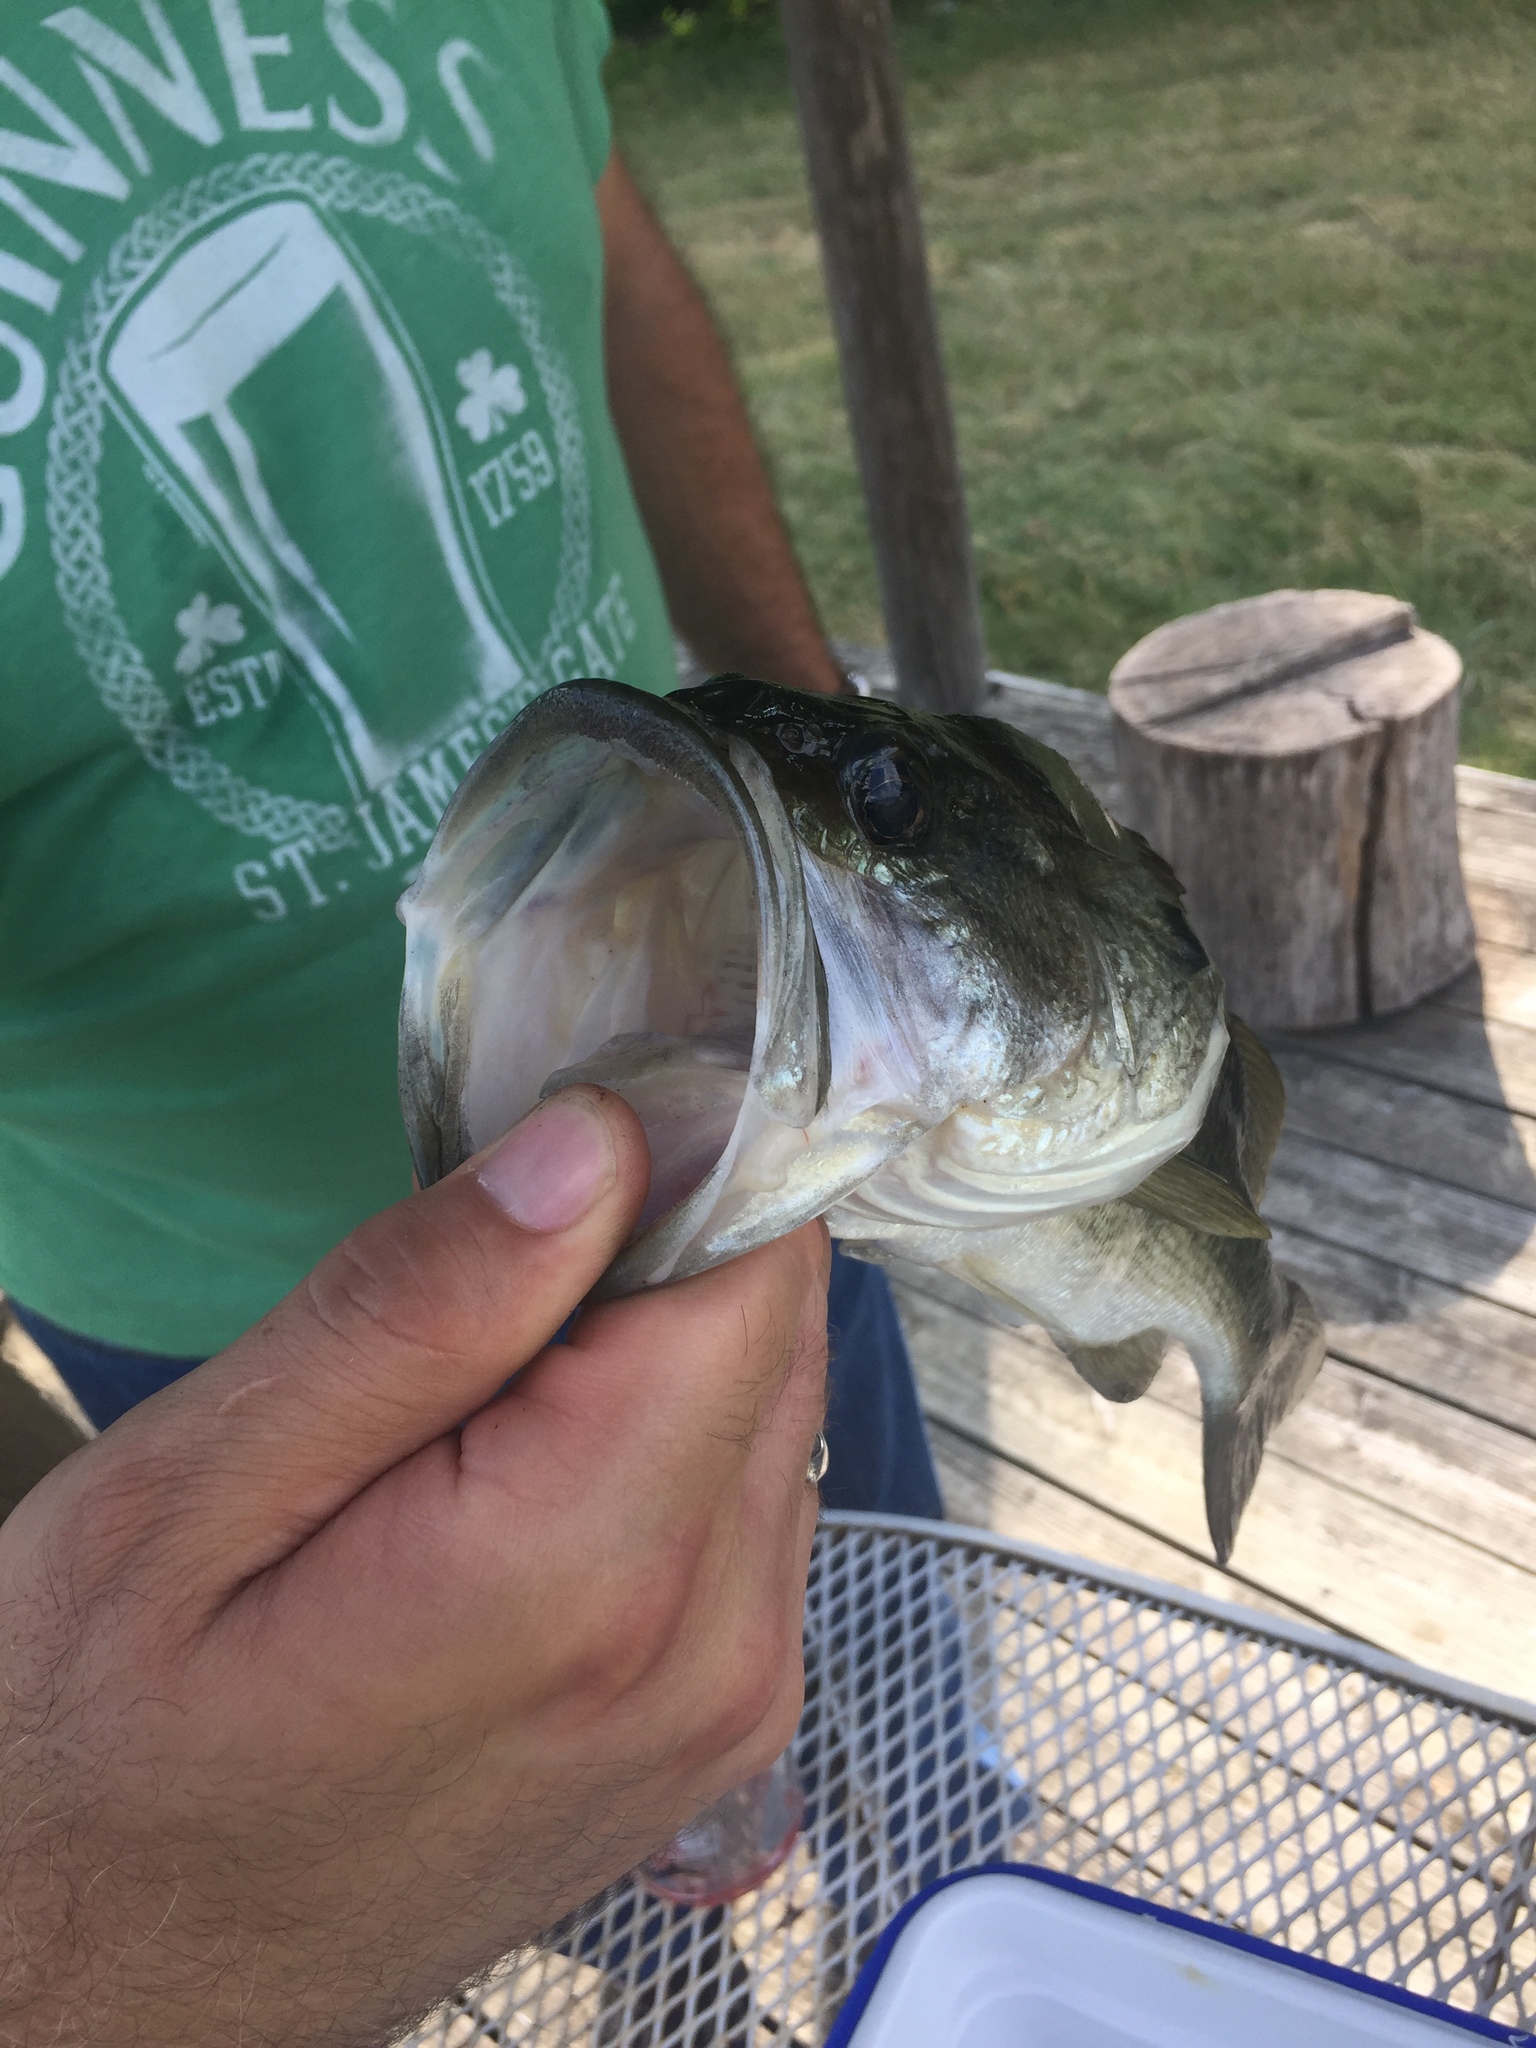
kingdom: Animalia
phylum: Chordata
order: Perciformes
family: Centrarchidae
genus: Micropterus
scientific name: Micropterus
